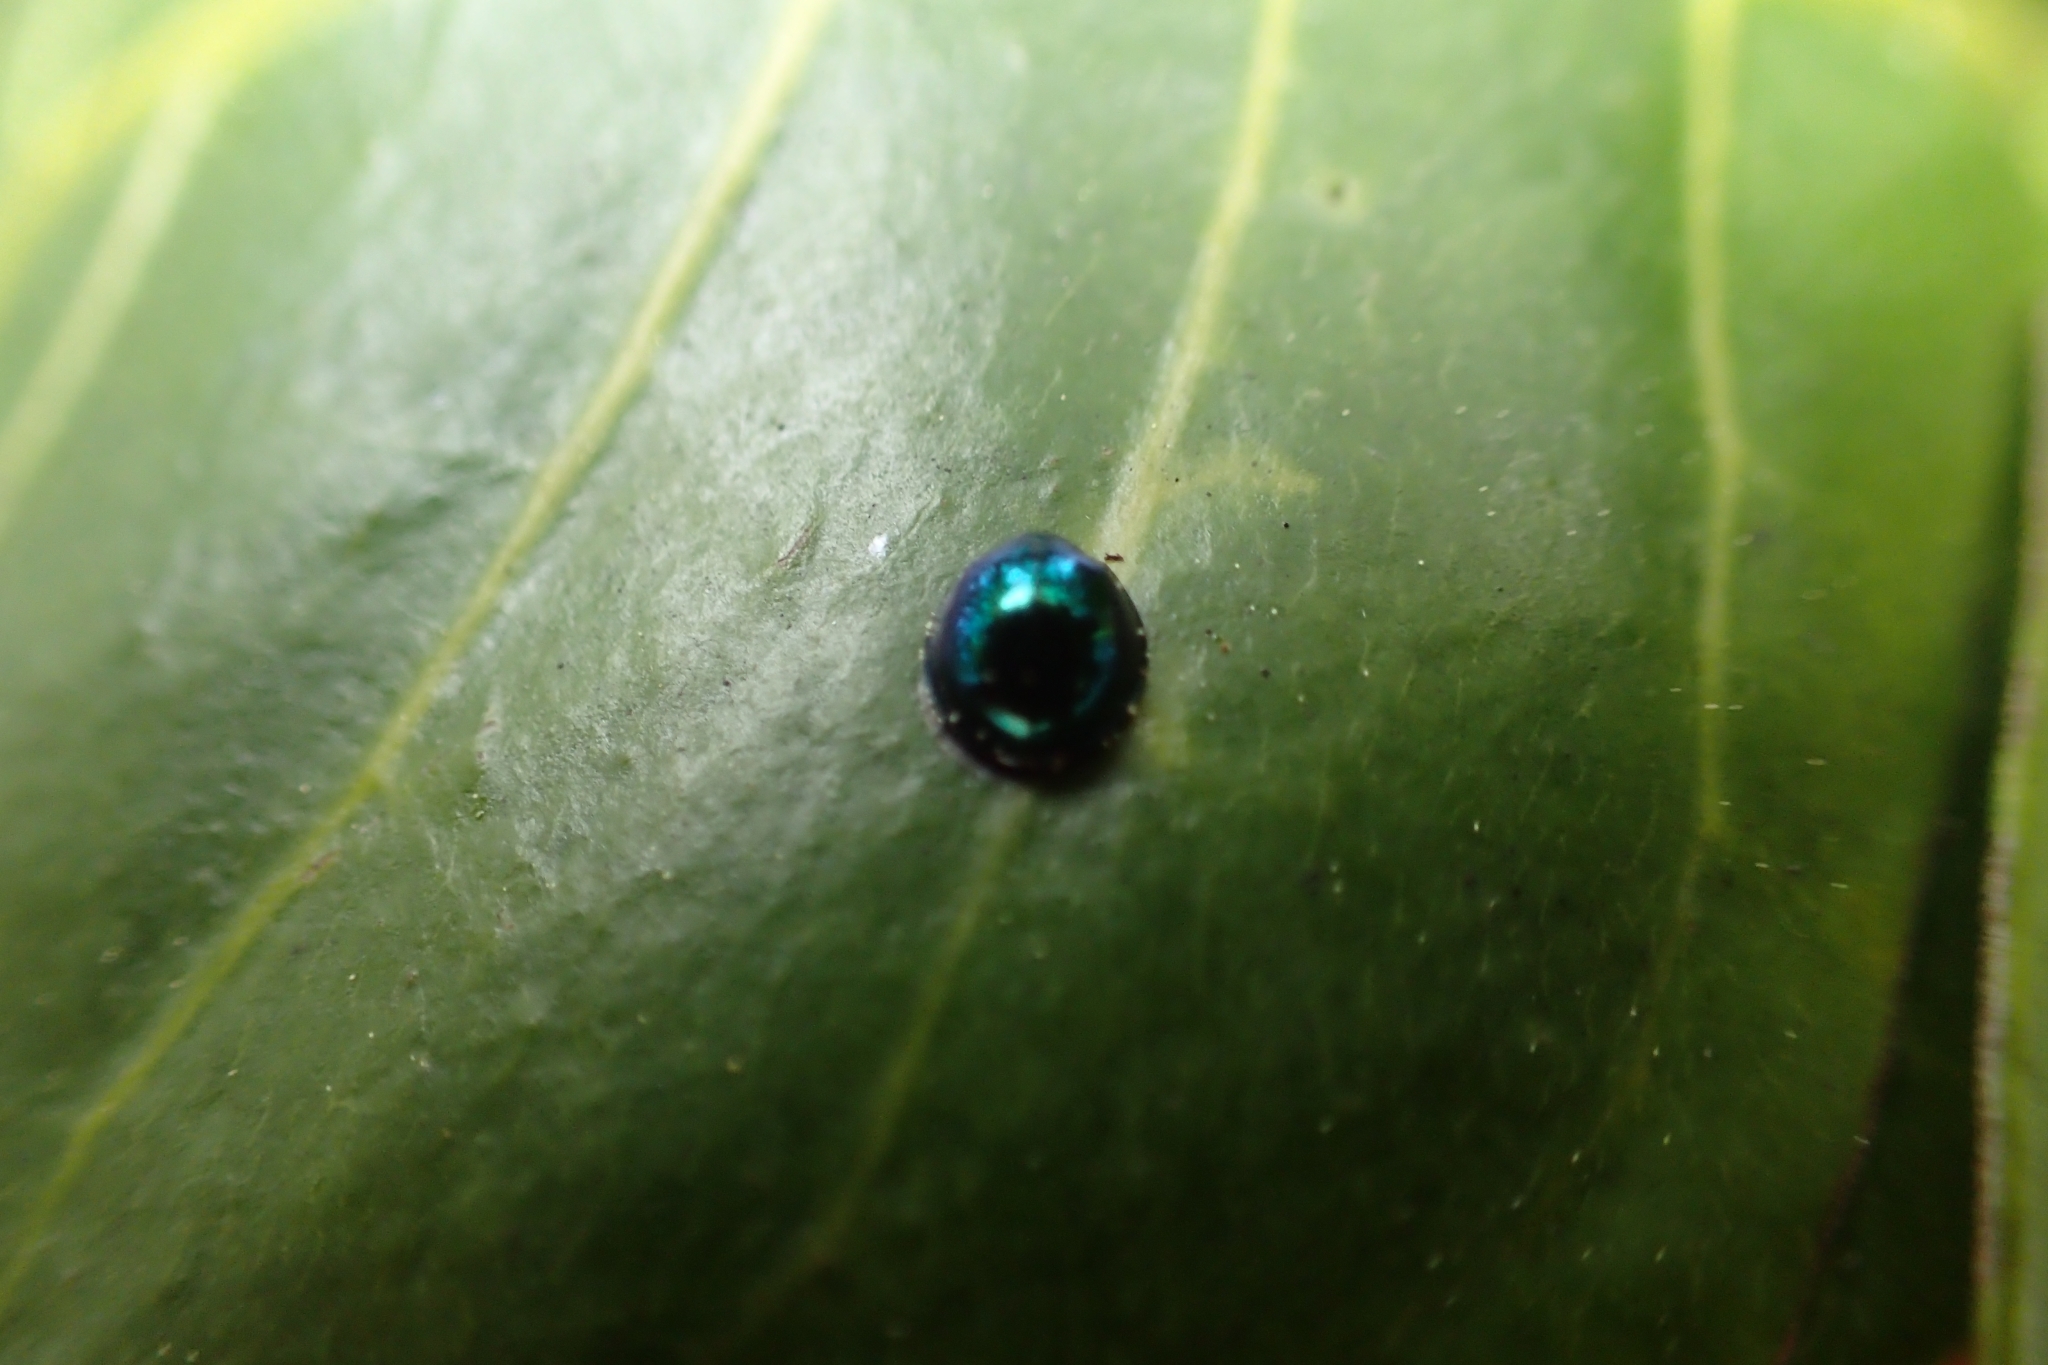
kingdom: Animalia
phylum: Arthropoda
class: Insecta
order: Coleoptera
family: Coccinellidae
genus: Halmus
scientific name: Halmus chalybeus
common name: Steel blue ladybird beetle
